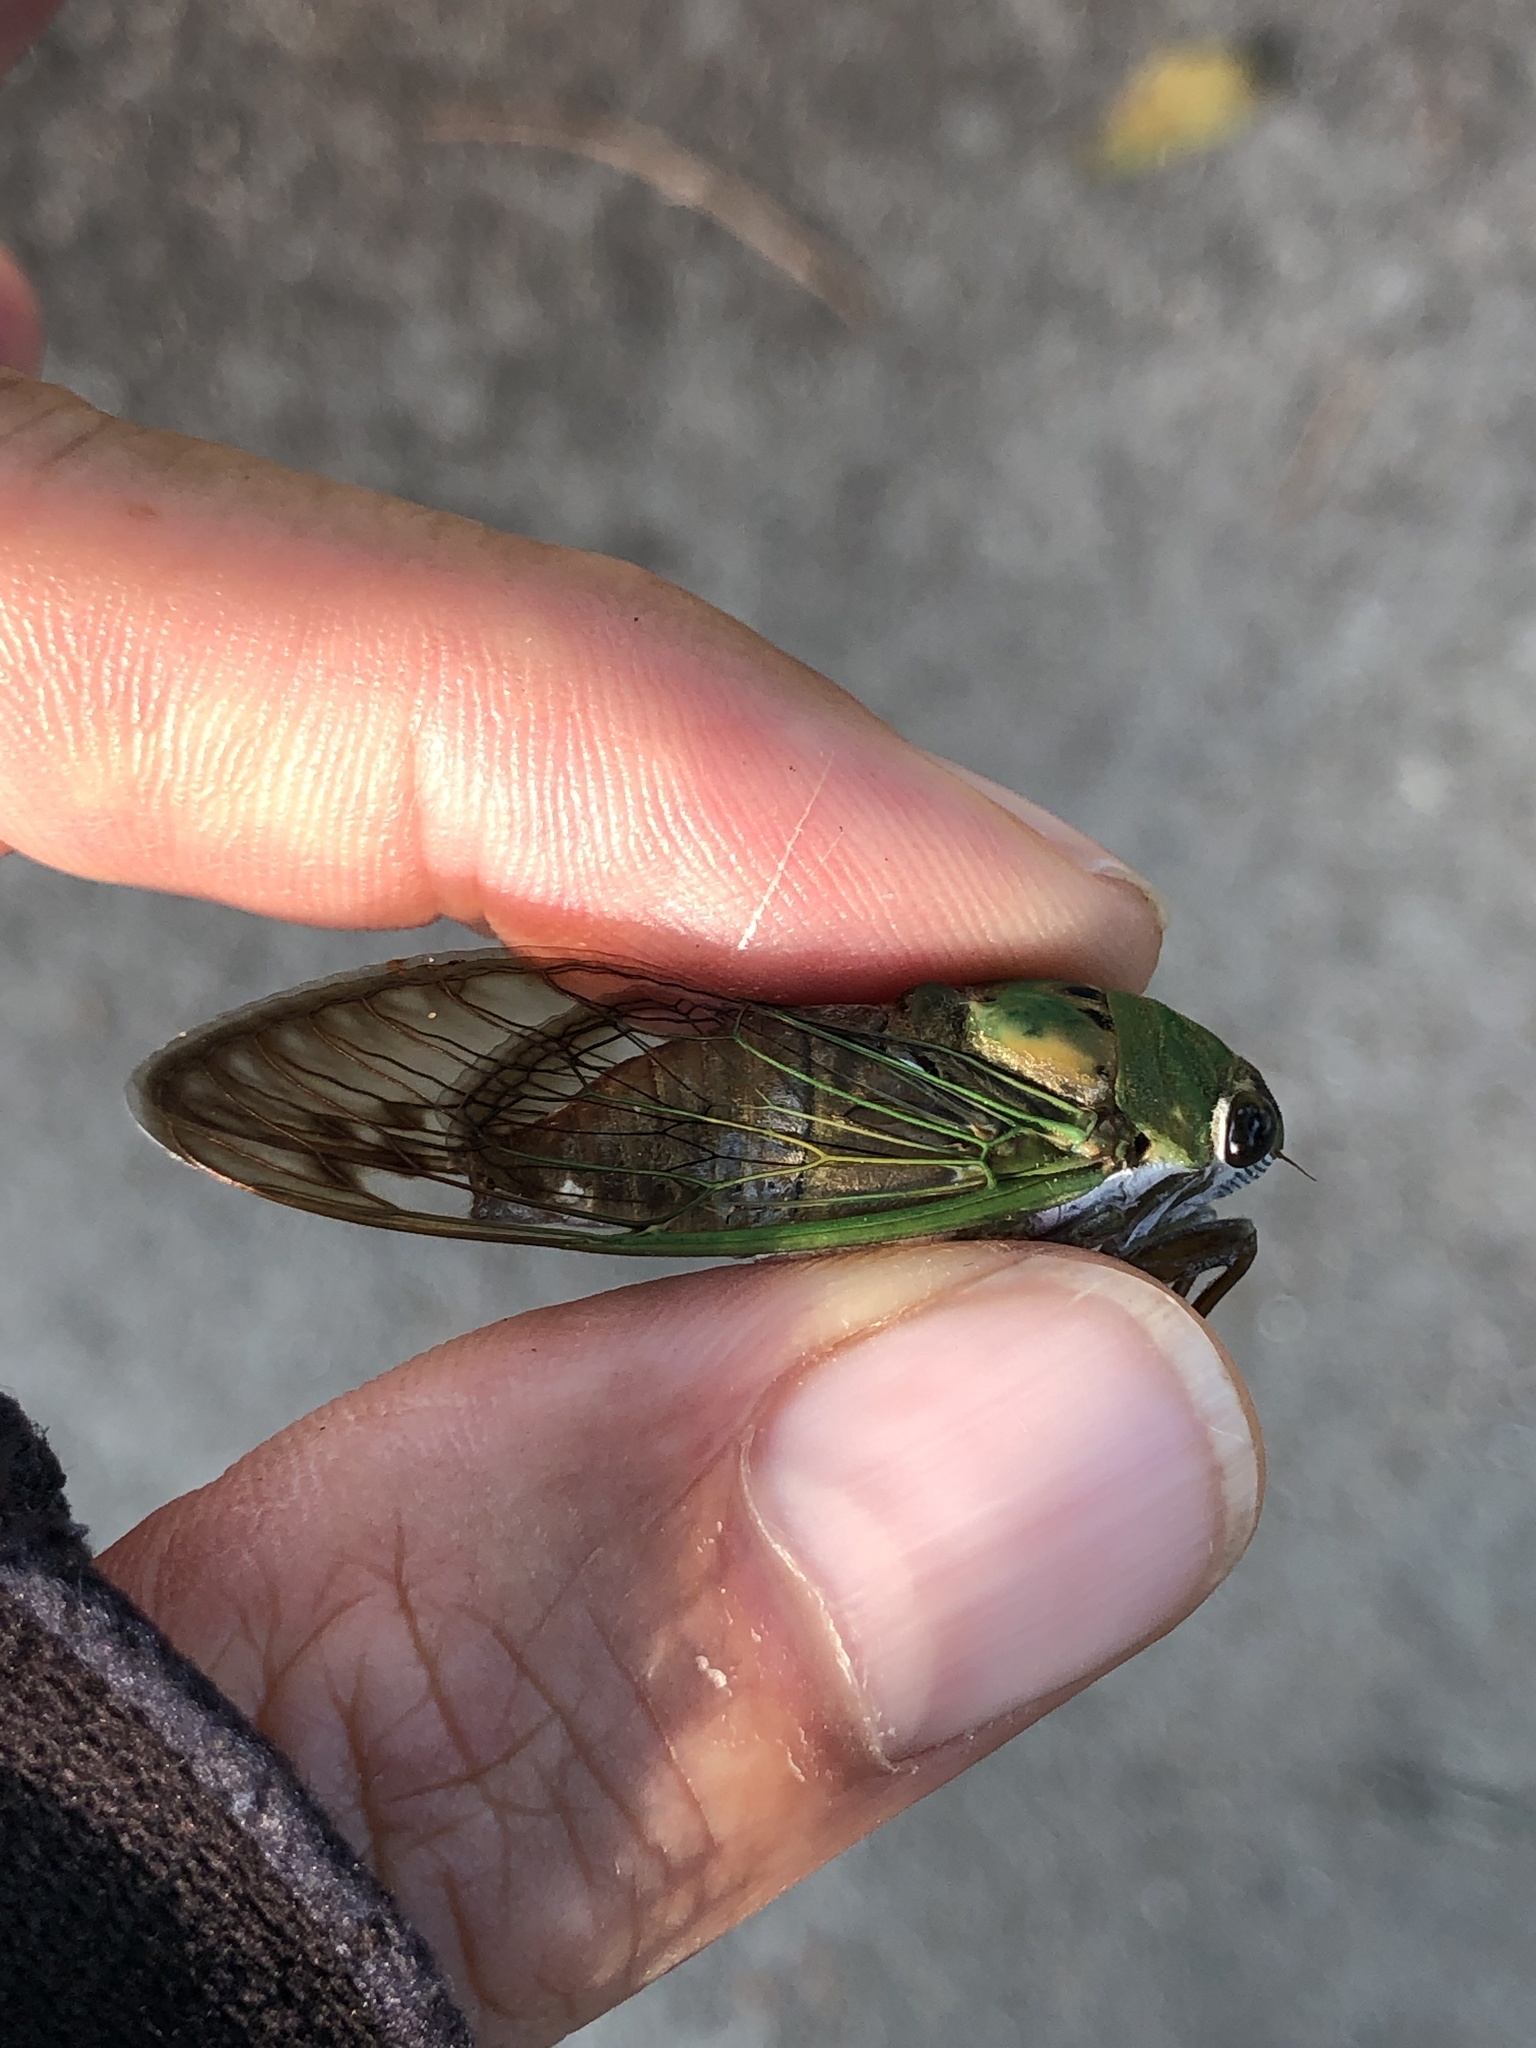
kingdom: Animalia
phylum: Arthropoda
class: Insecta
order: Hemiptera
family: Cicadidae
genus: Neotibicen
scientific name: Neotibicen superbus
